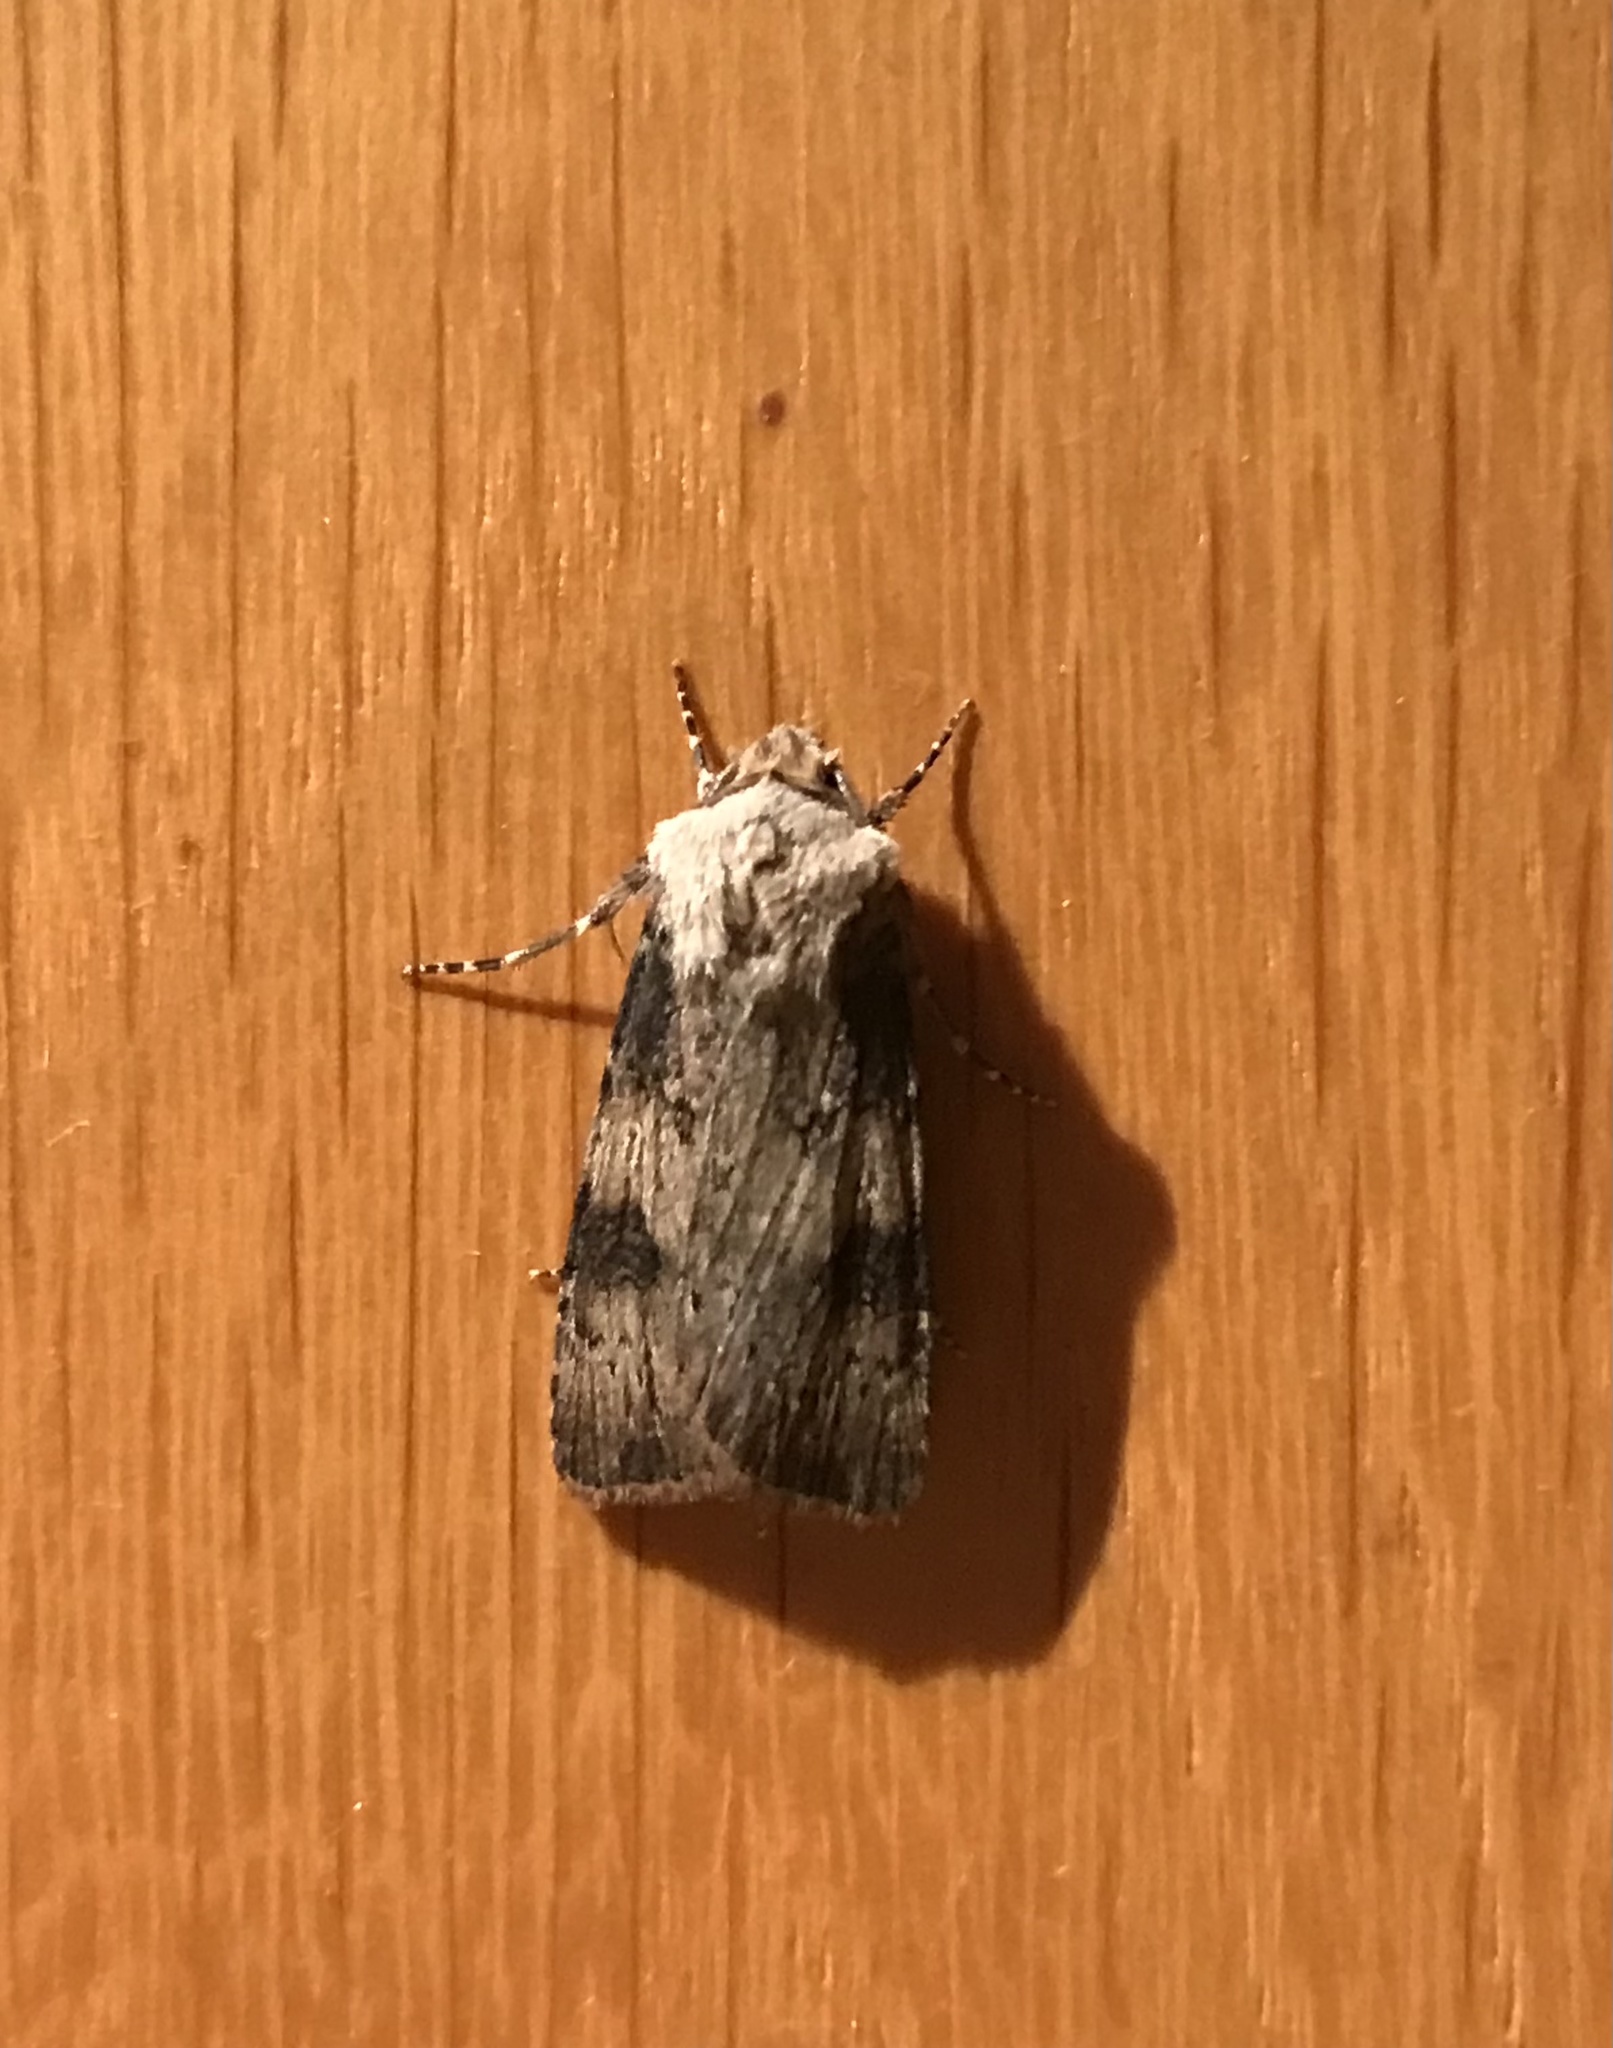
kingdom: Animalia
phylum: Arthropoda
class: Insecta
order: Lepidoptera
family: Noctuidae
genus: Agrotis
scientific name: Agrotis puta
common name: Shuttle-shaped dart
